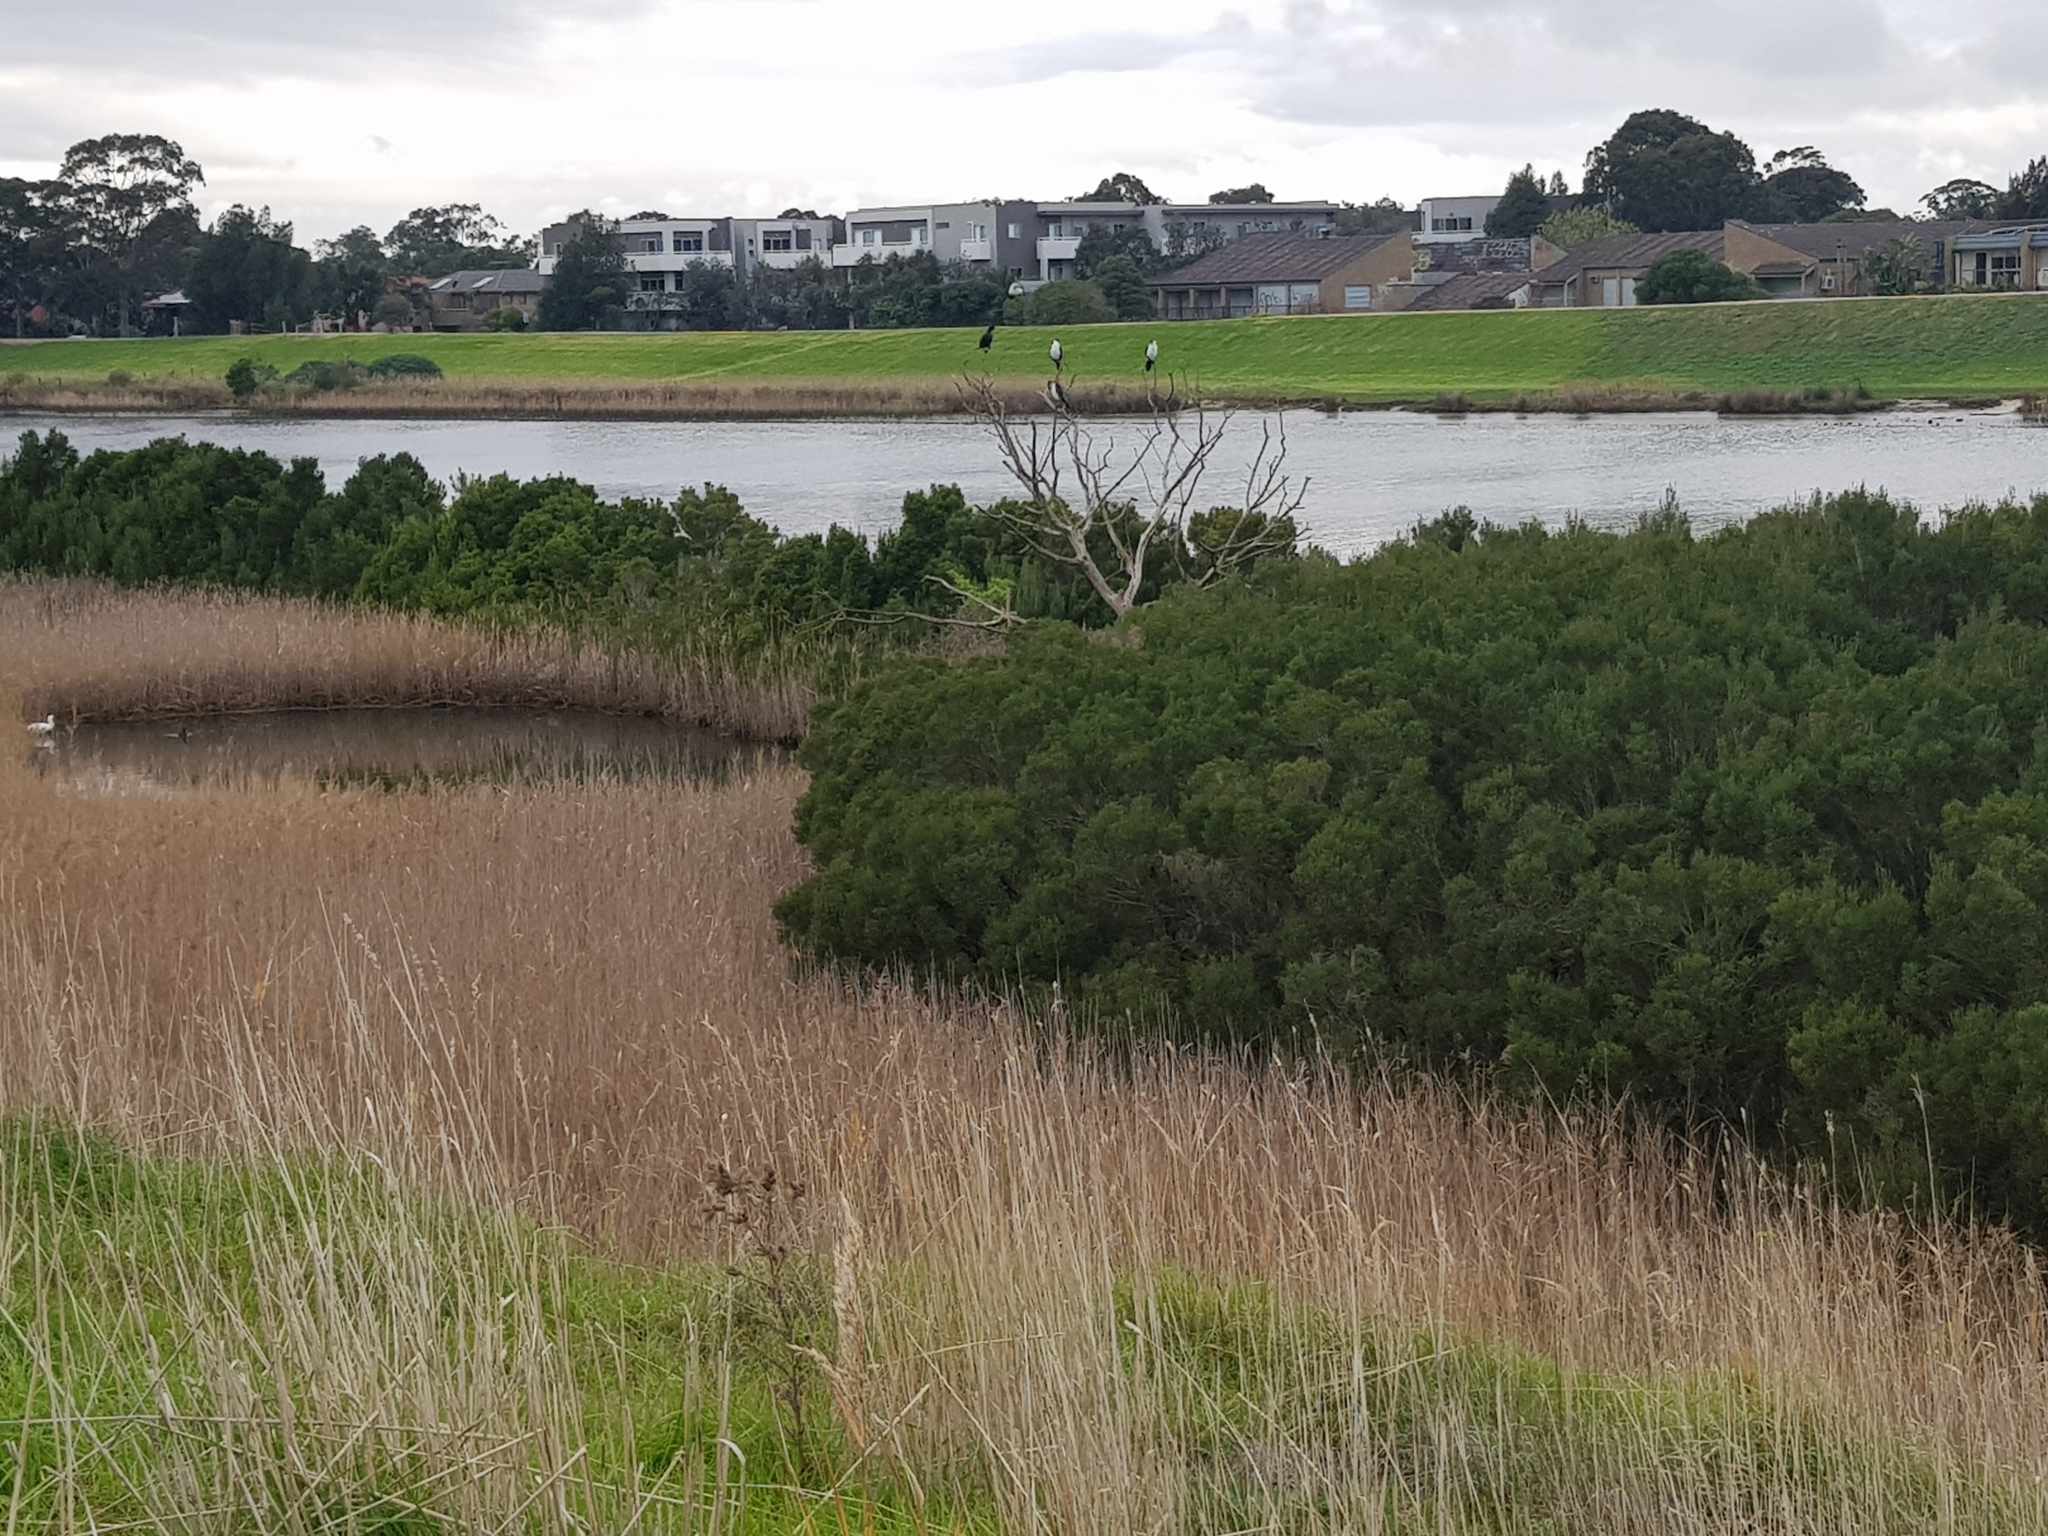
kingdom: Animalia
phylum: Chordata
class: Aves
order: Suliformes
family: Phalacrocoracidae
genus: Microcarbo
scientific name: Microcarbo melanoleucos
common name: Little pied cormorant
